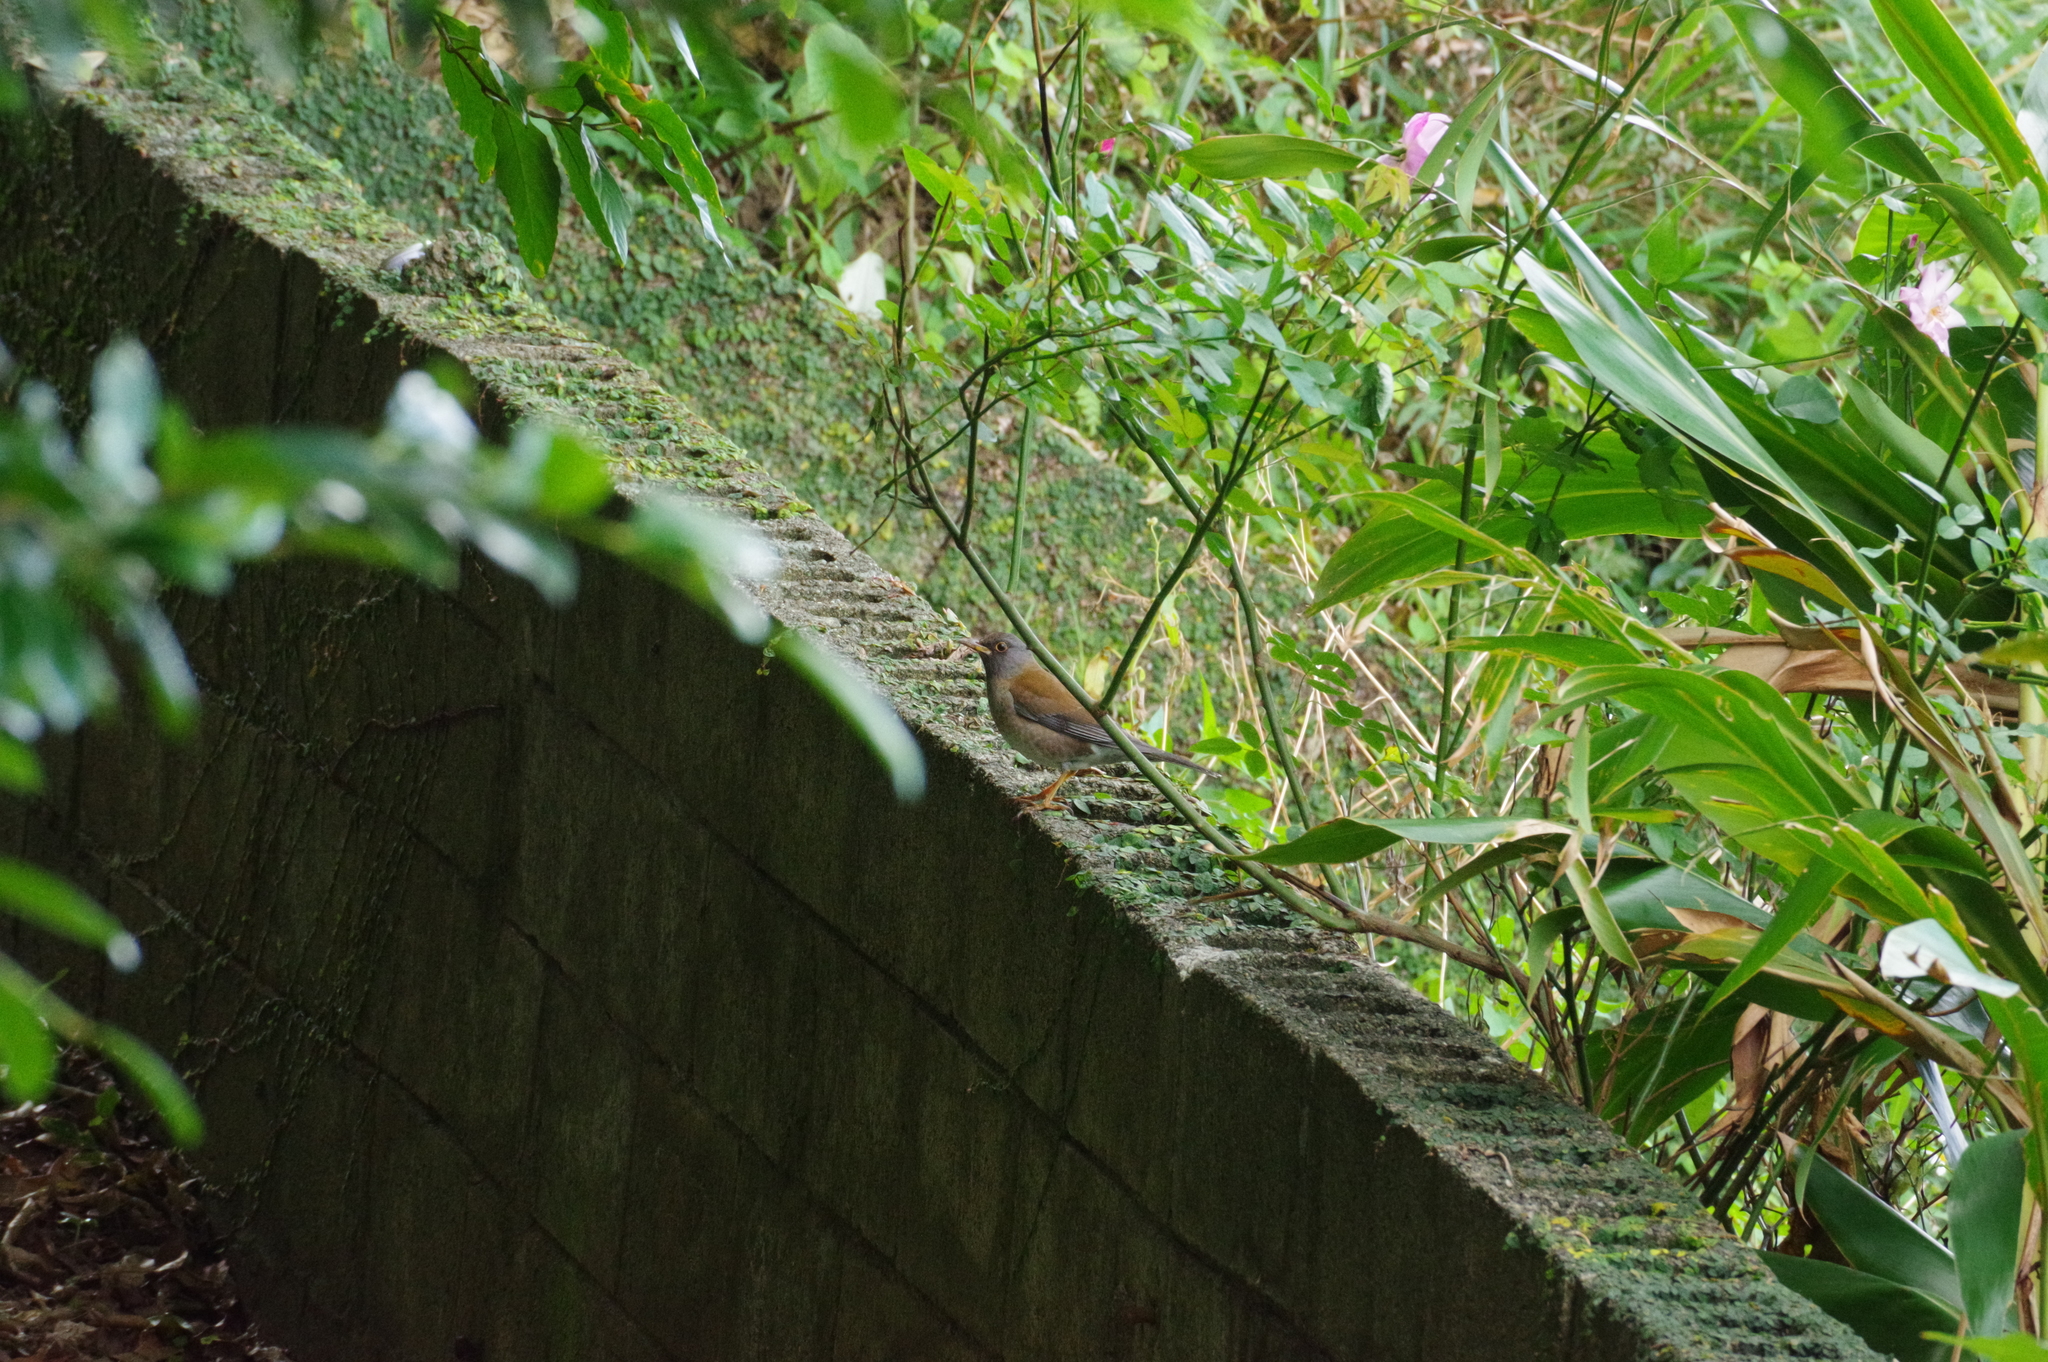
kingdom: Animalia
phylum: Chordata
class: Aves
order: Passeriformes
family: Turdidae
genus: Turdus
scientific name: Turdus pallidus
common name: Pale thrush
